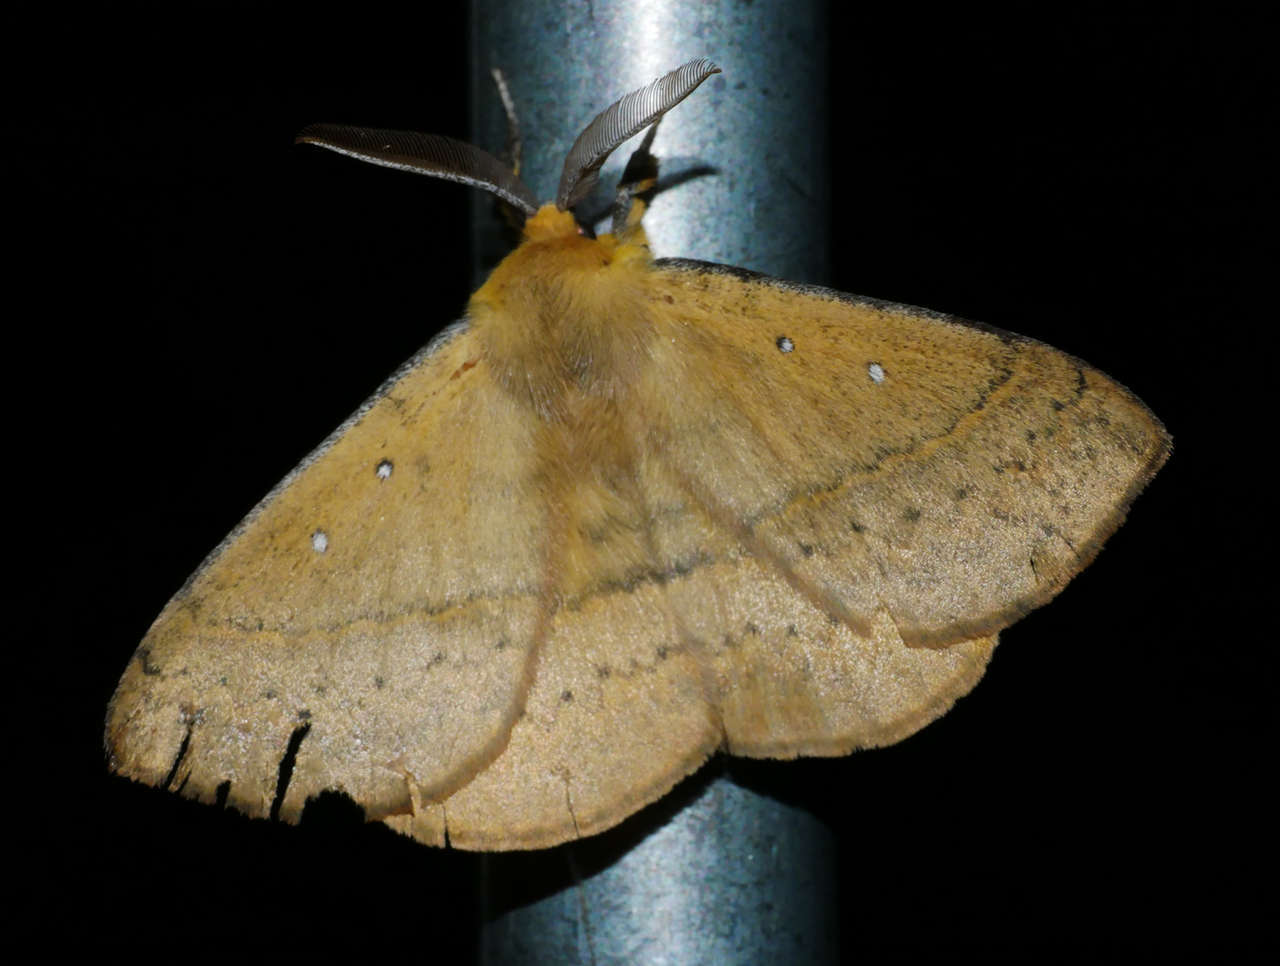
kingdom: Animalia
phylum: Arthropoda
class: Insecta
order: Lepidoptera
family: Anthelidae
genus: Anthela
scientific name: Anthela nicothoe
